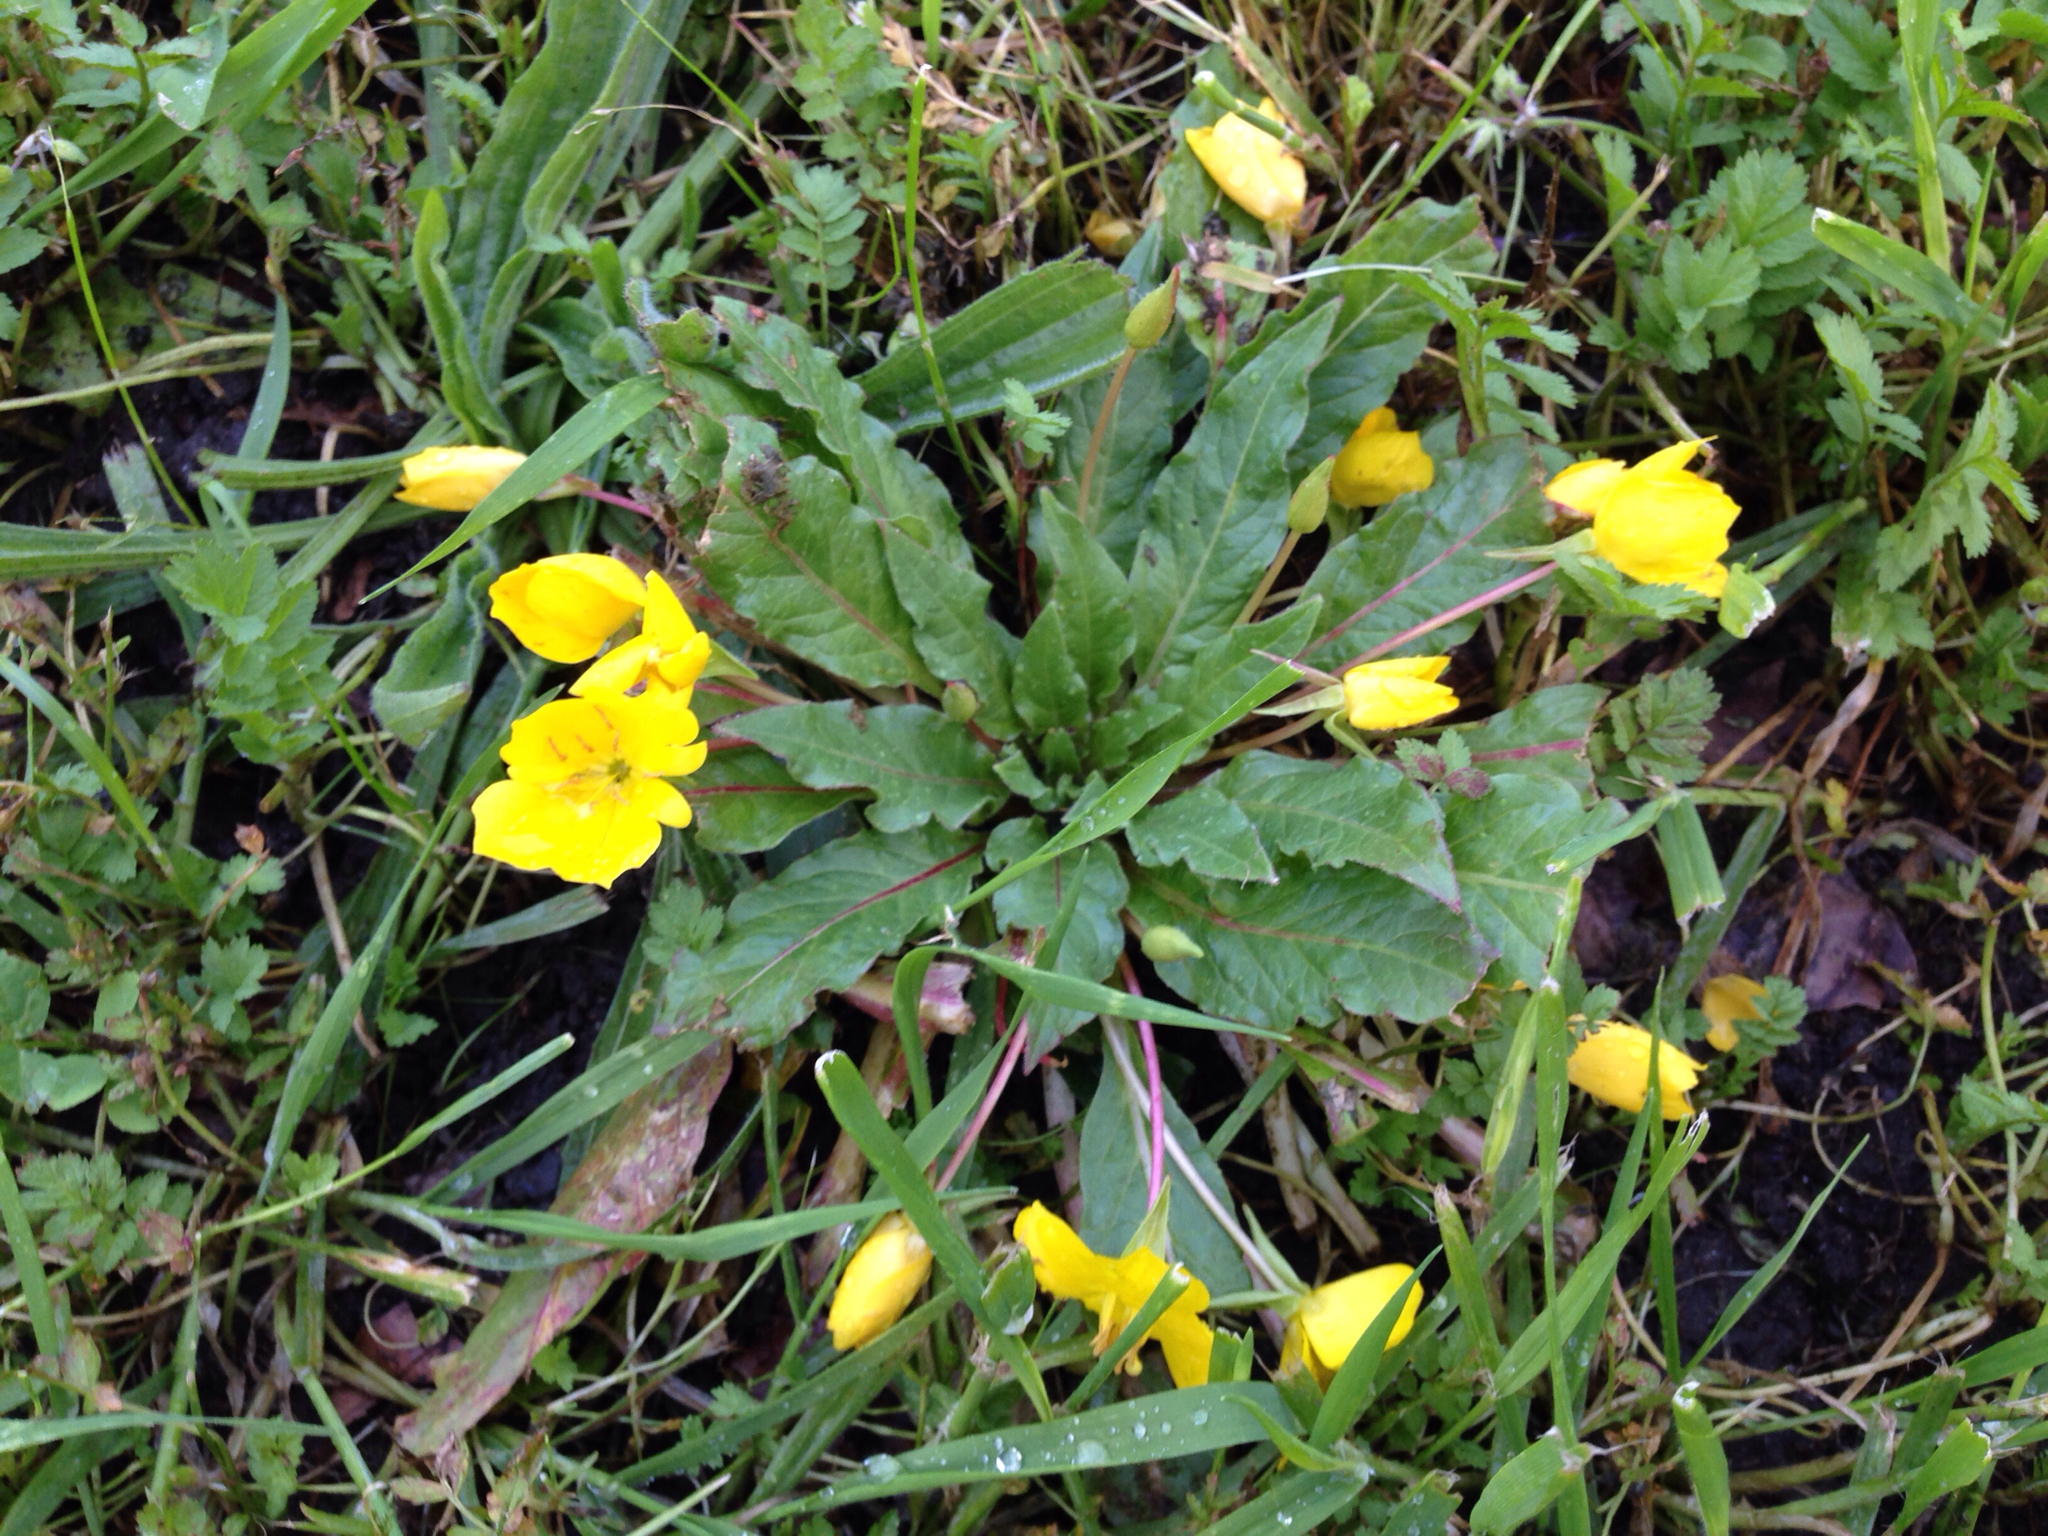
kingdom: Plantae
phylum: Tracheophyta
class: Magnoliopsida
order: Myrtales
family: Onagraceae
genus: Taraxia
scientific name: Taraxia ovata
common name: Goldeneggs
